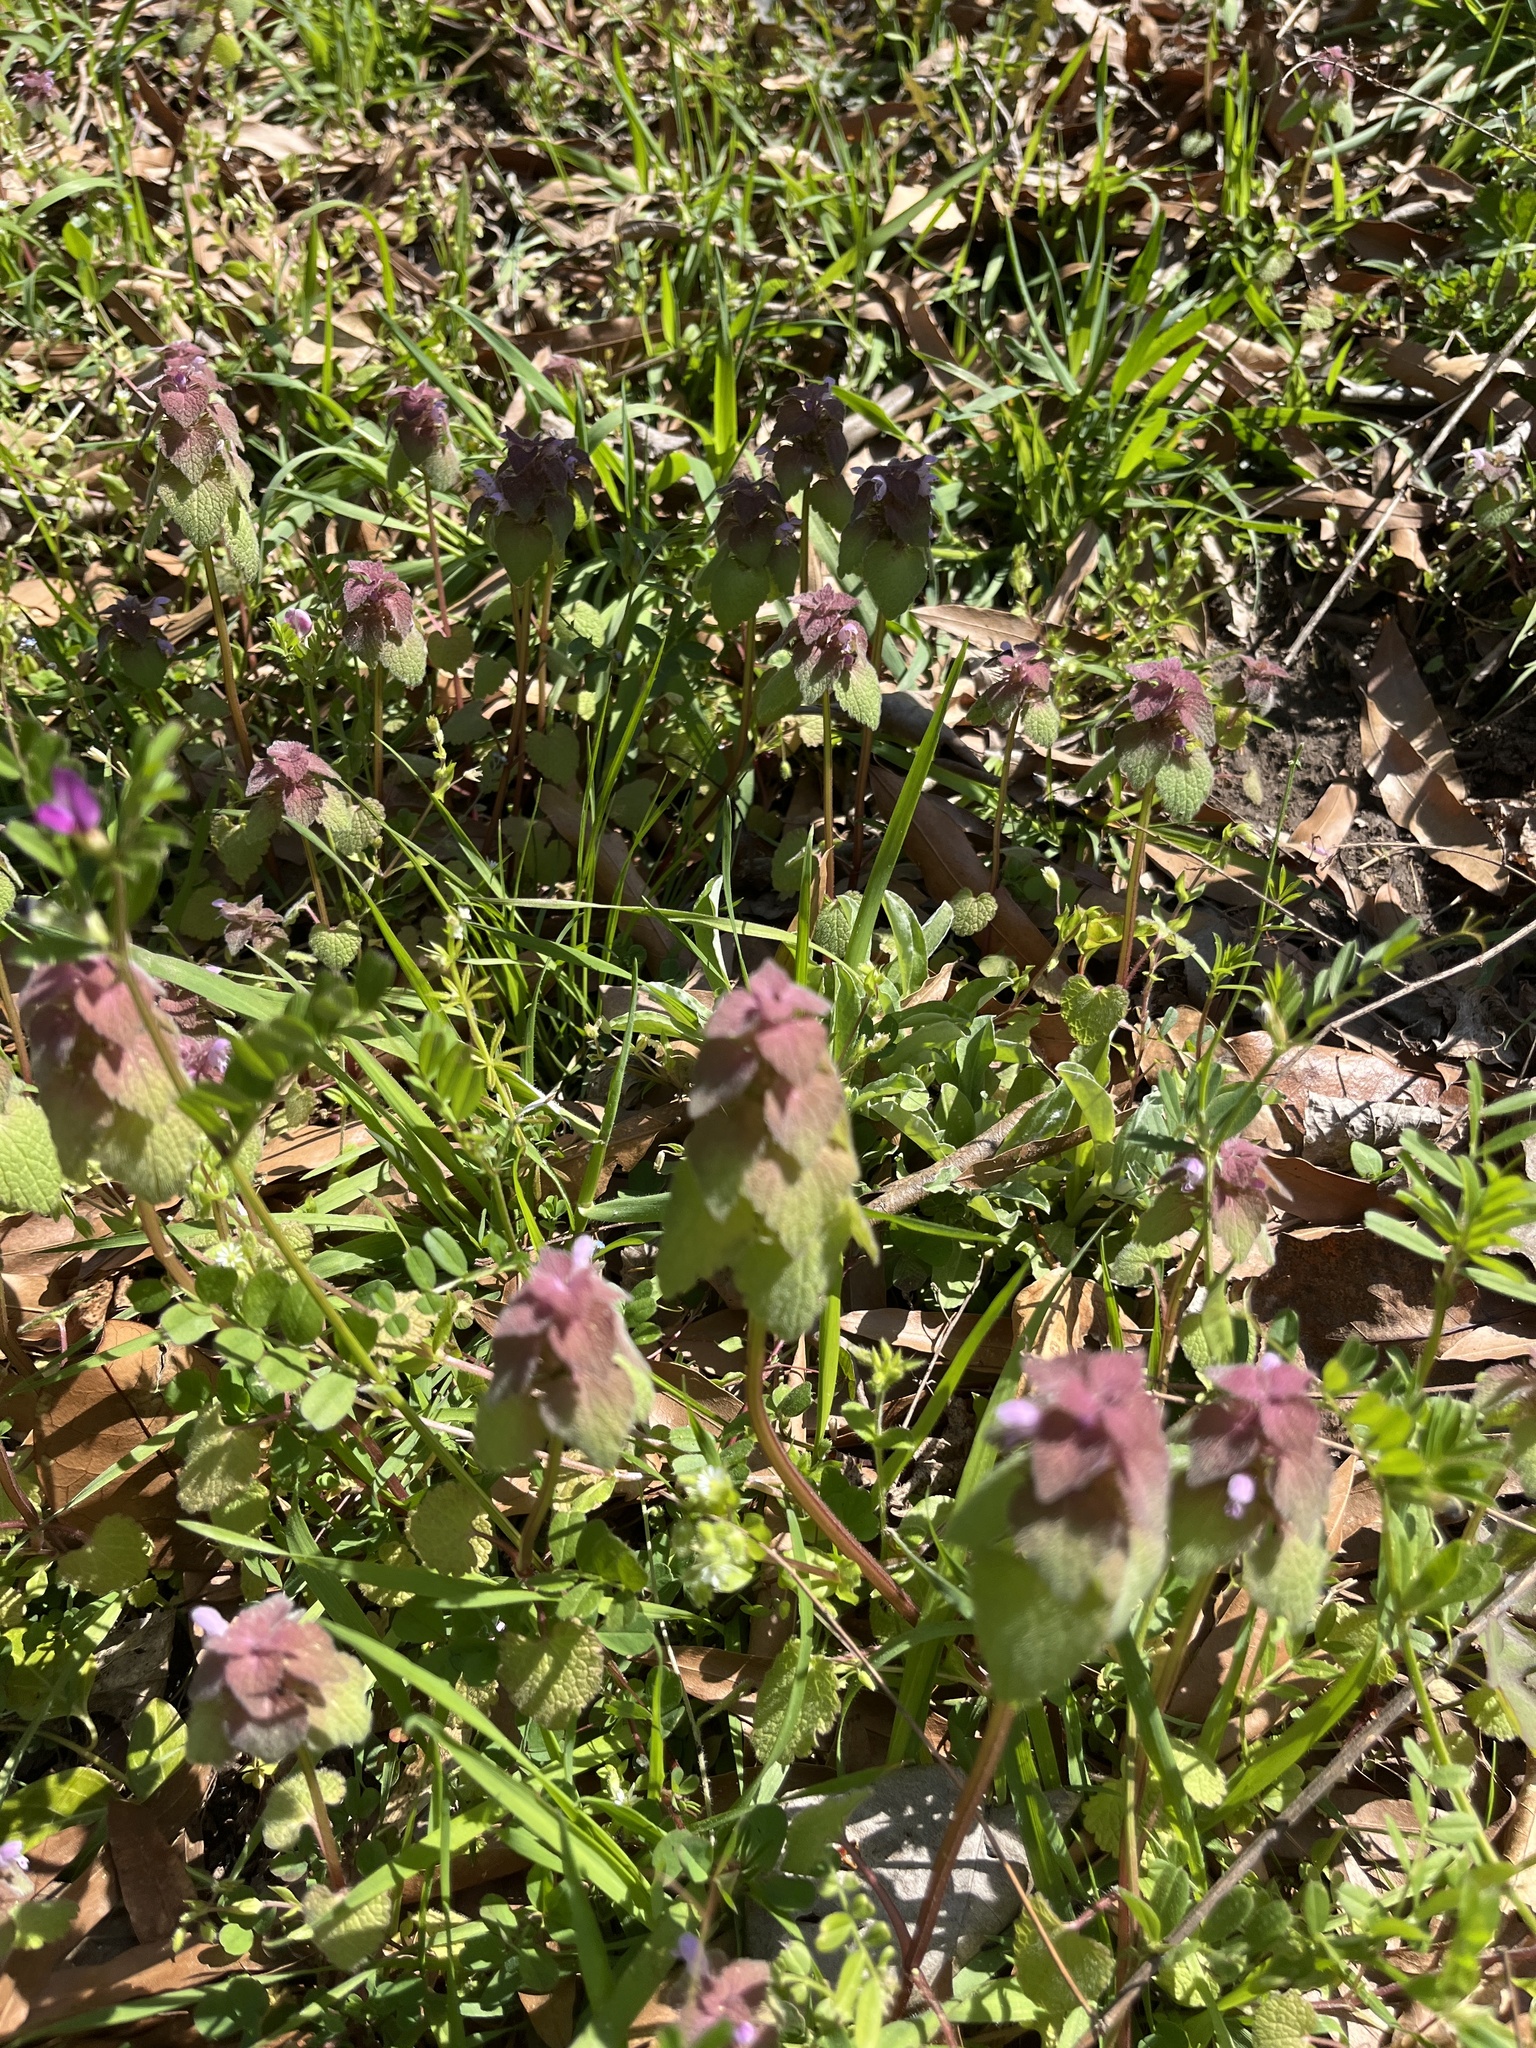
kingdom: Plantae
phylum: Tracheophyta
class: Magnoliopsida
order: Lamiales
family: Lamiaceae
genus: Lamium
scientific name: Lamium purpureum
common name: Red dead-nettle
